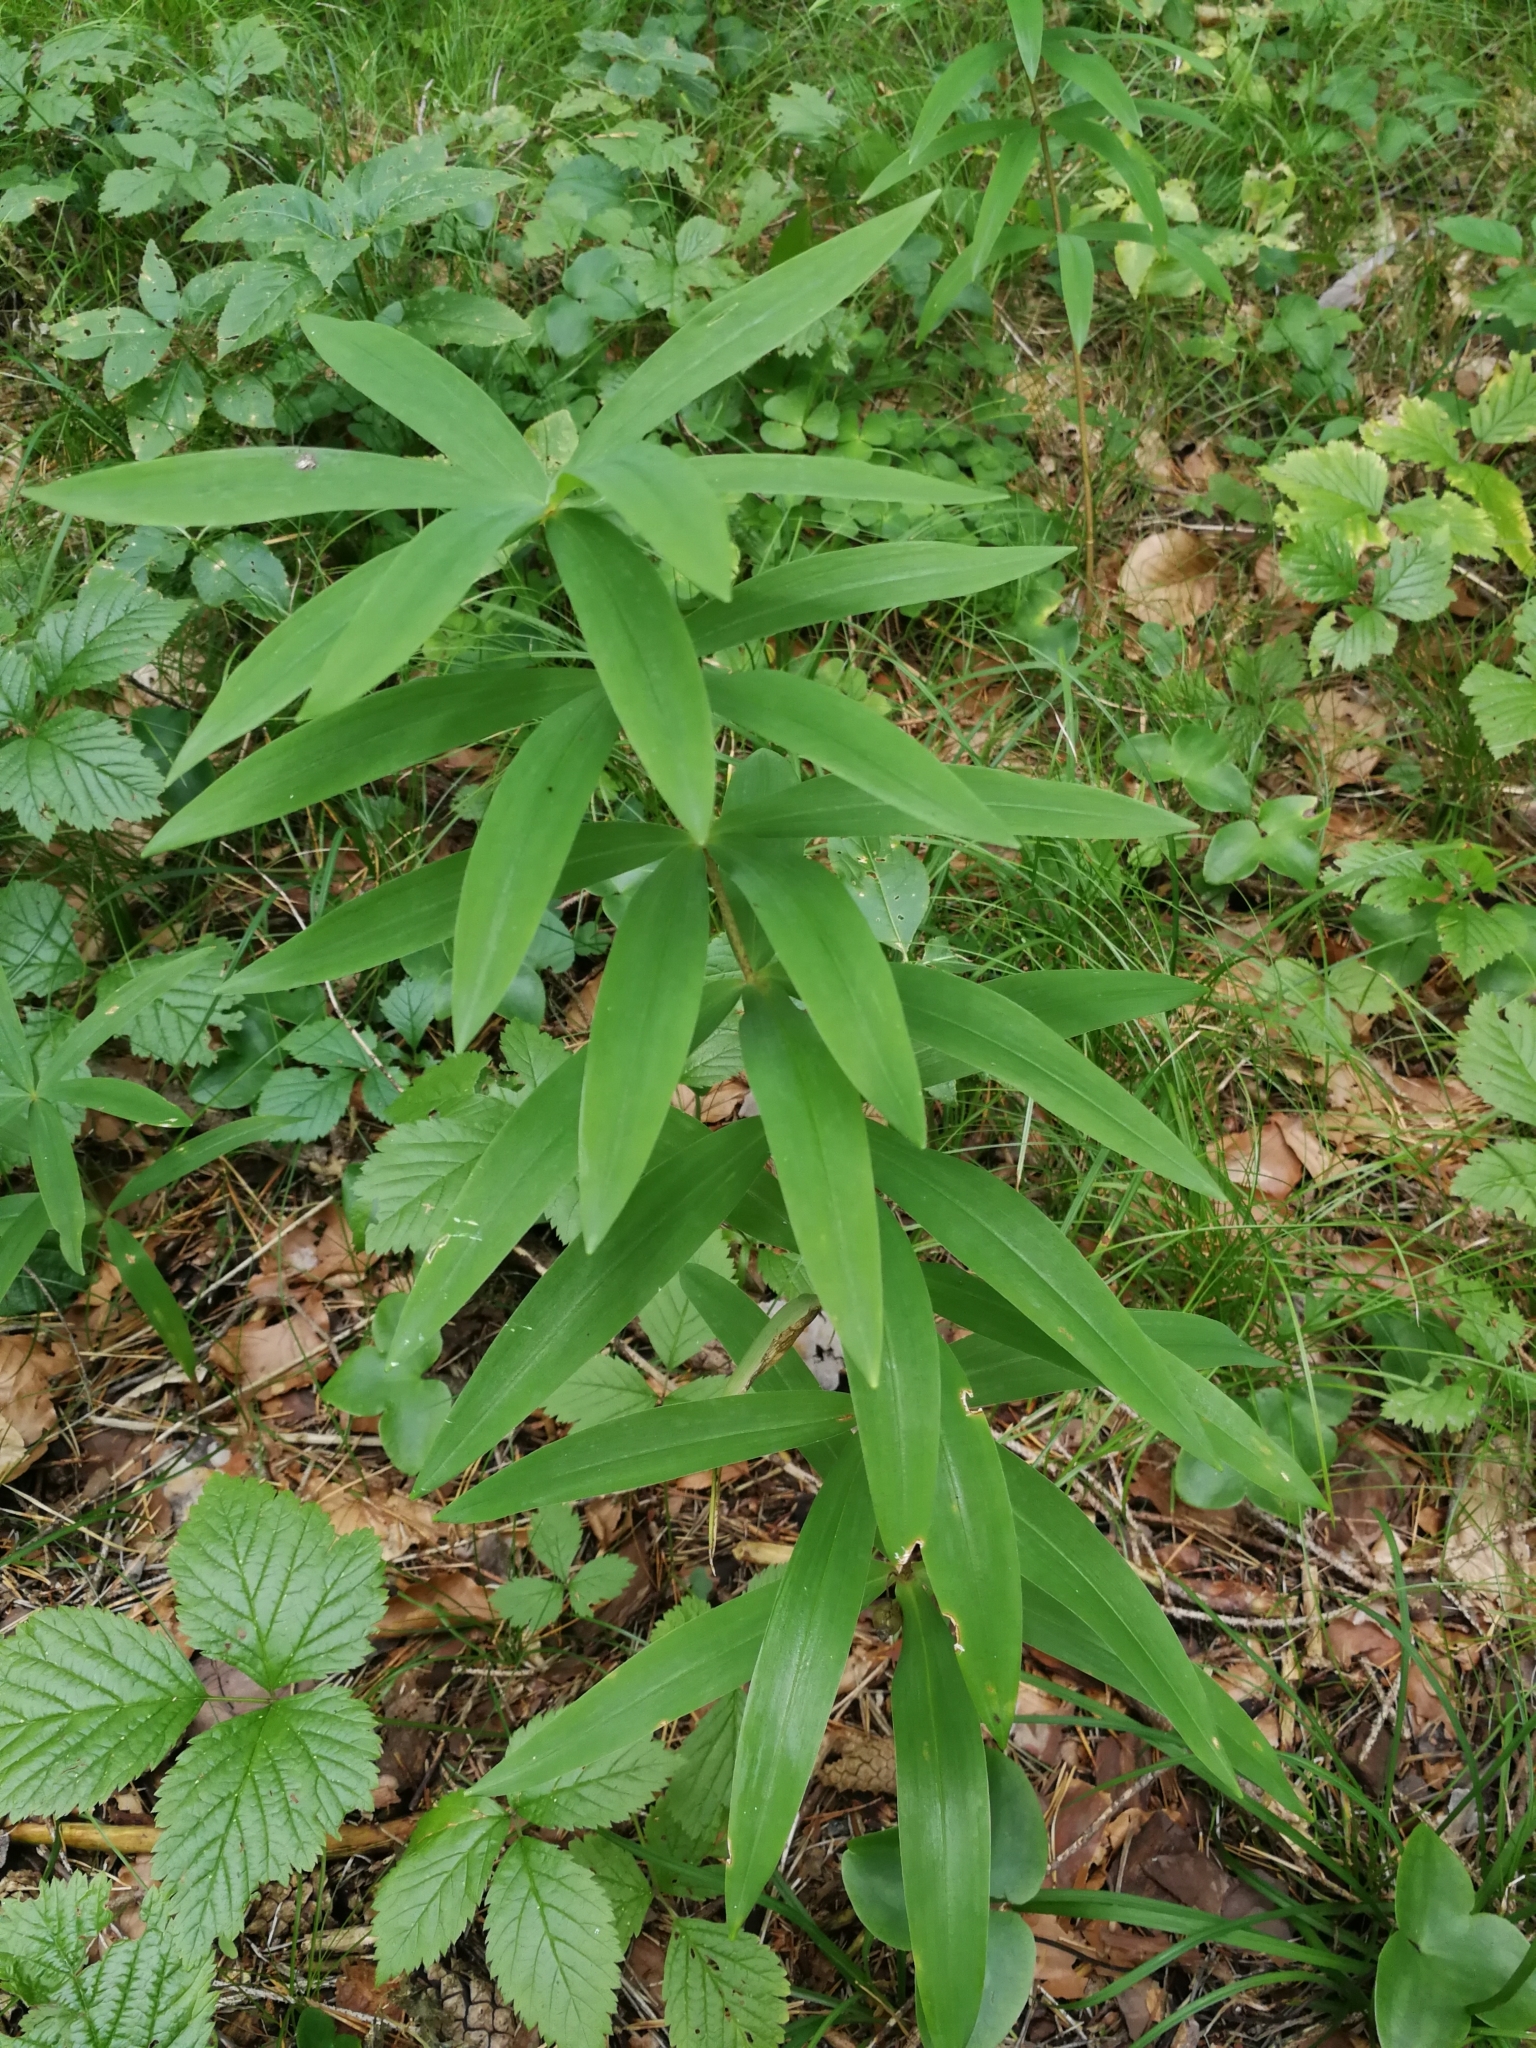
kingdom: Plantae
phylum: Tracheophyta
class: Liliopsida
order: Asparagales
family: Asparagaceae
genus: Polygonatum
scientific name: Polygonatum verticillatum
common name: Whorled solomon's-seal
